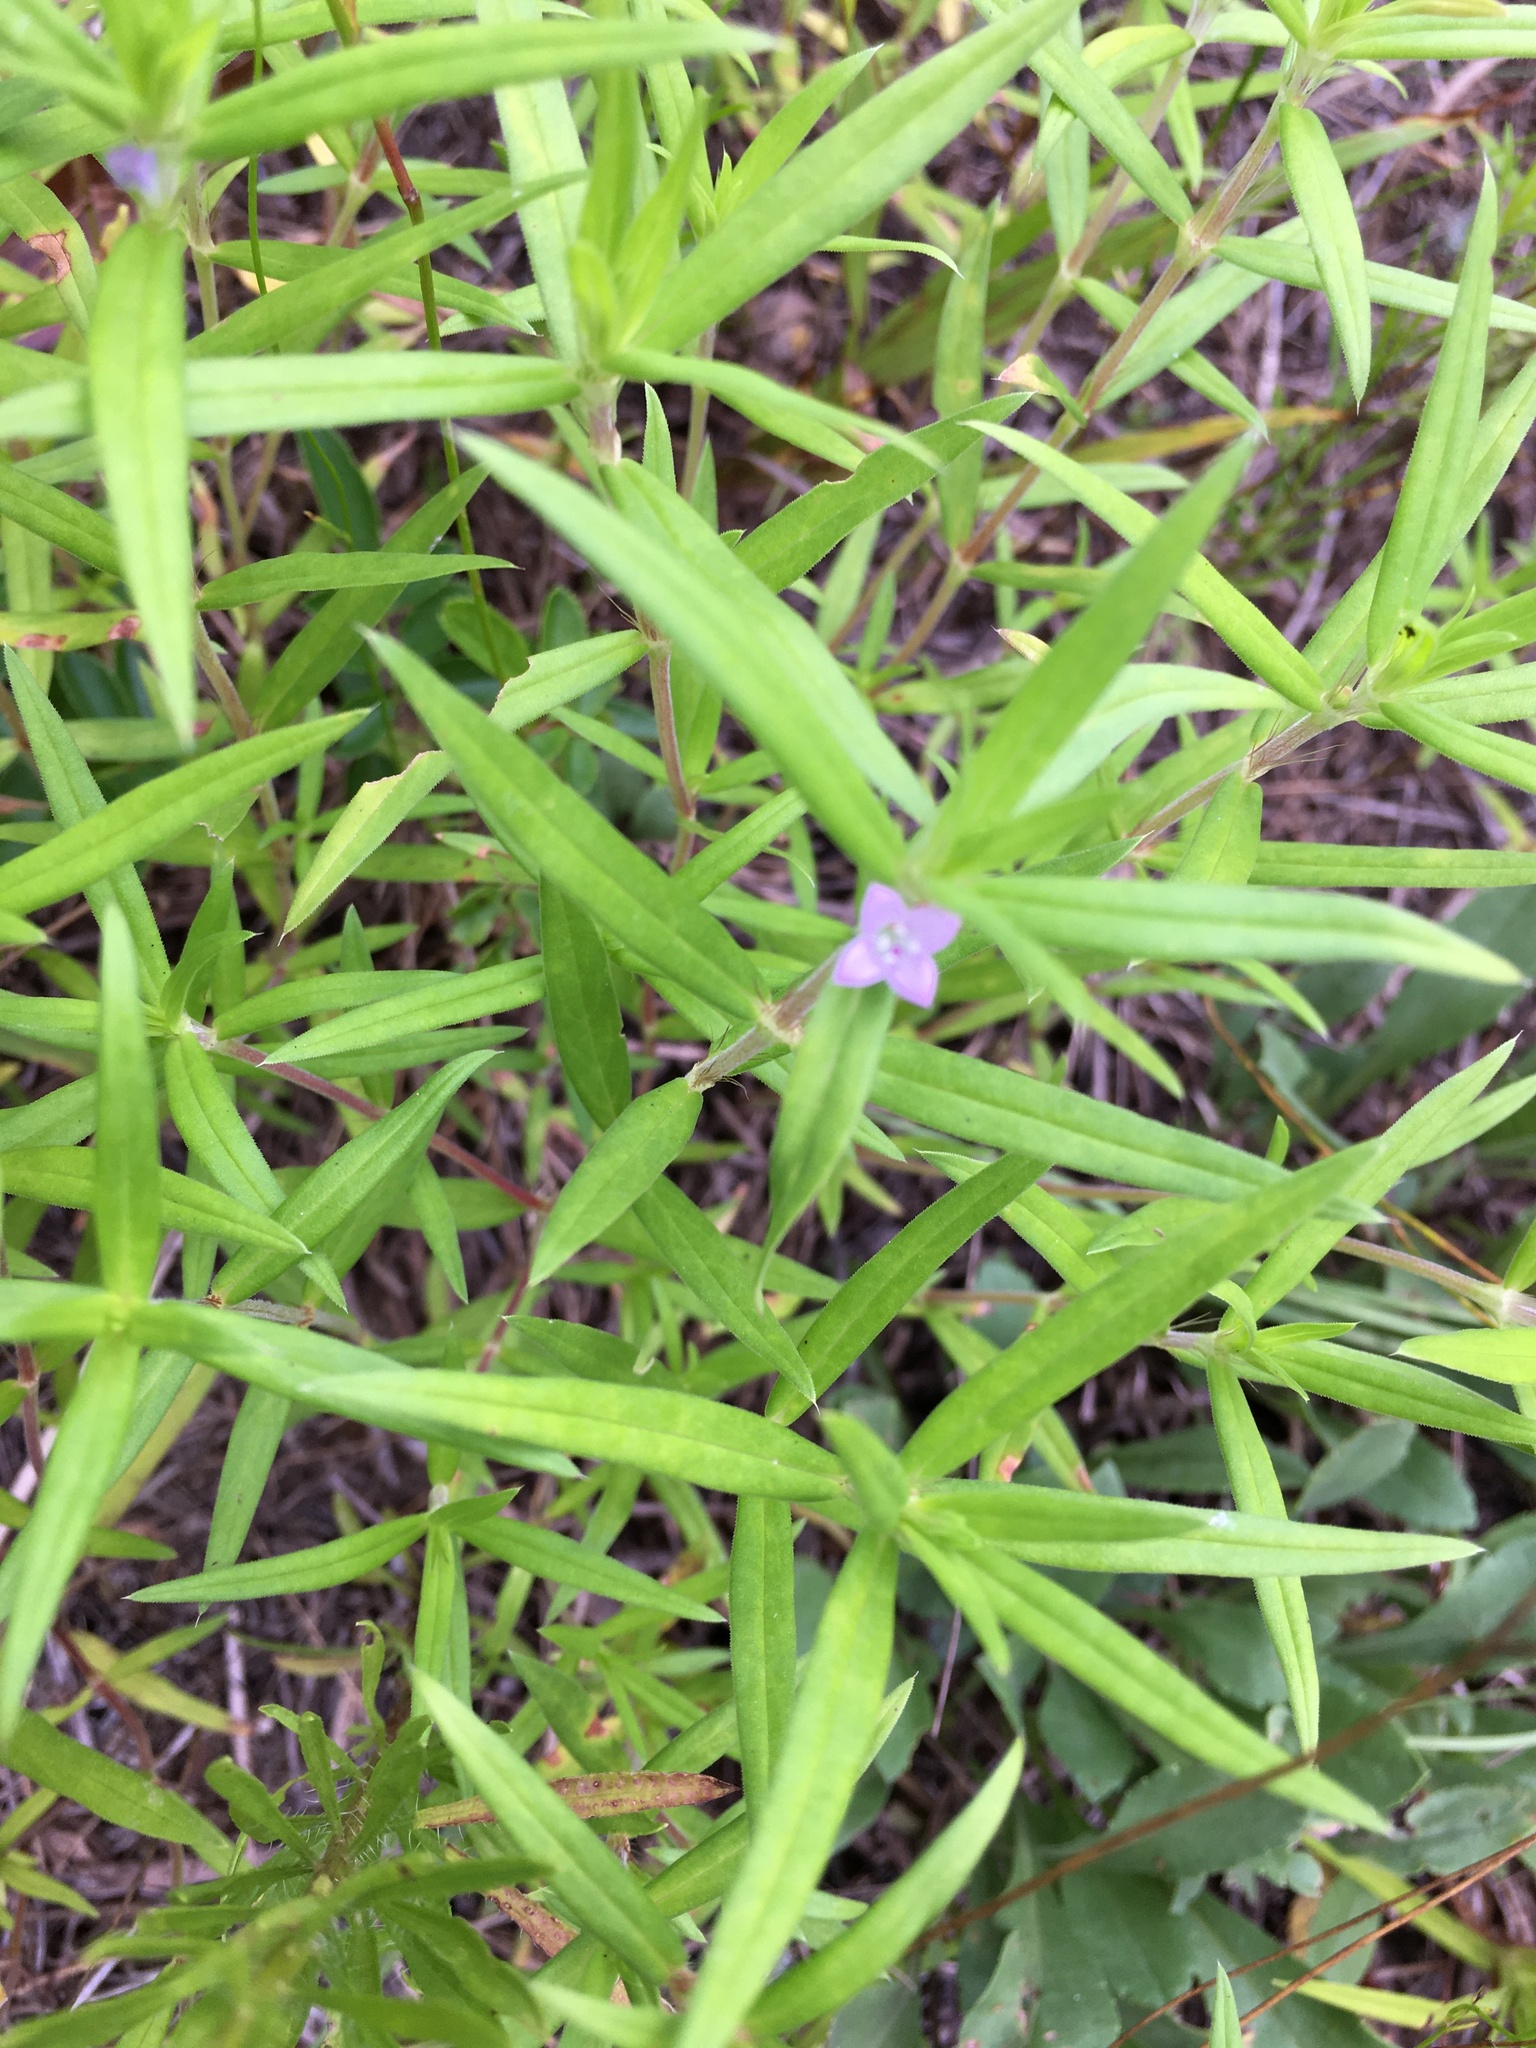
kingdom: Plantae
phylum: Tracheophyta
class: Magnoliopsida
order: Gentianales
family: Rubiaceae
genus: Hexasepalum
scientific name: Hexasepalum teres
